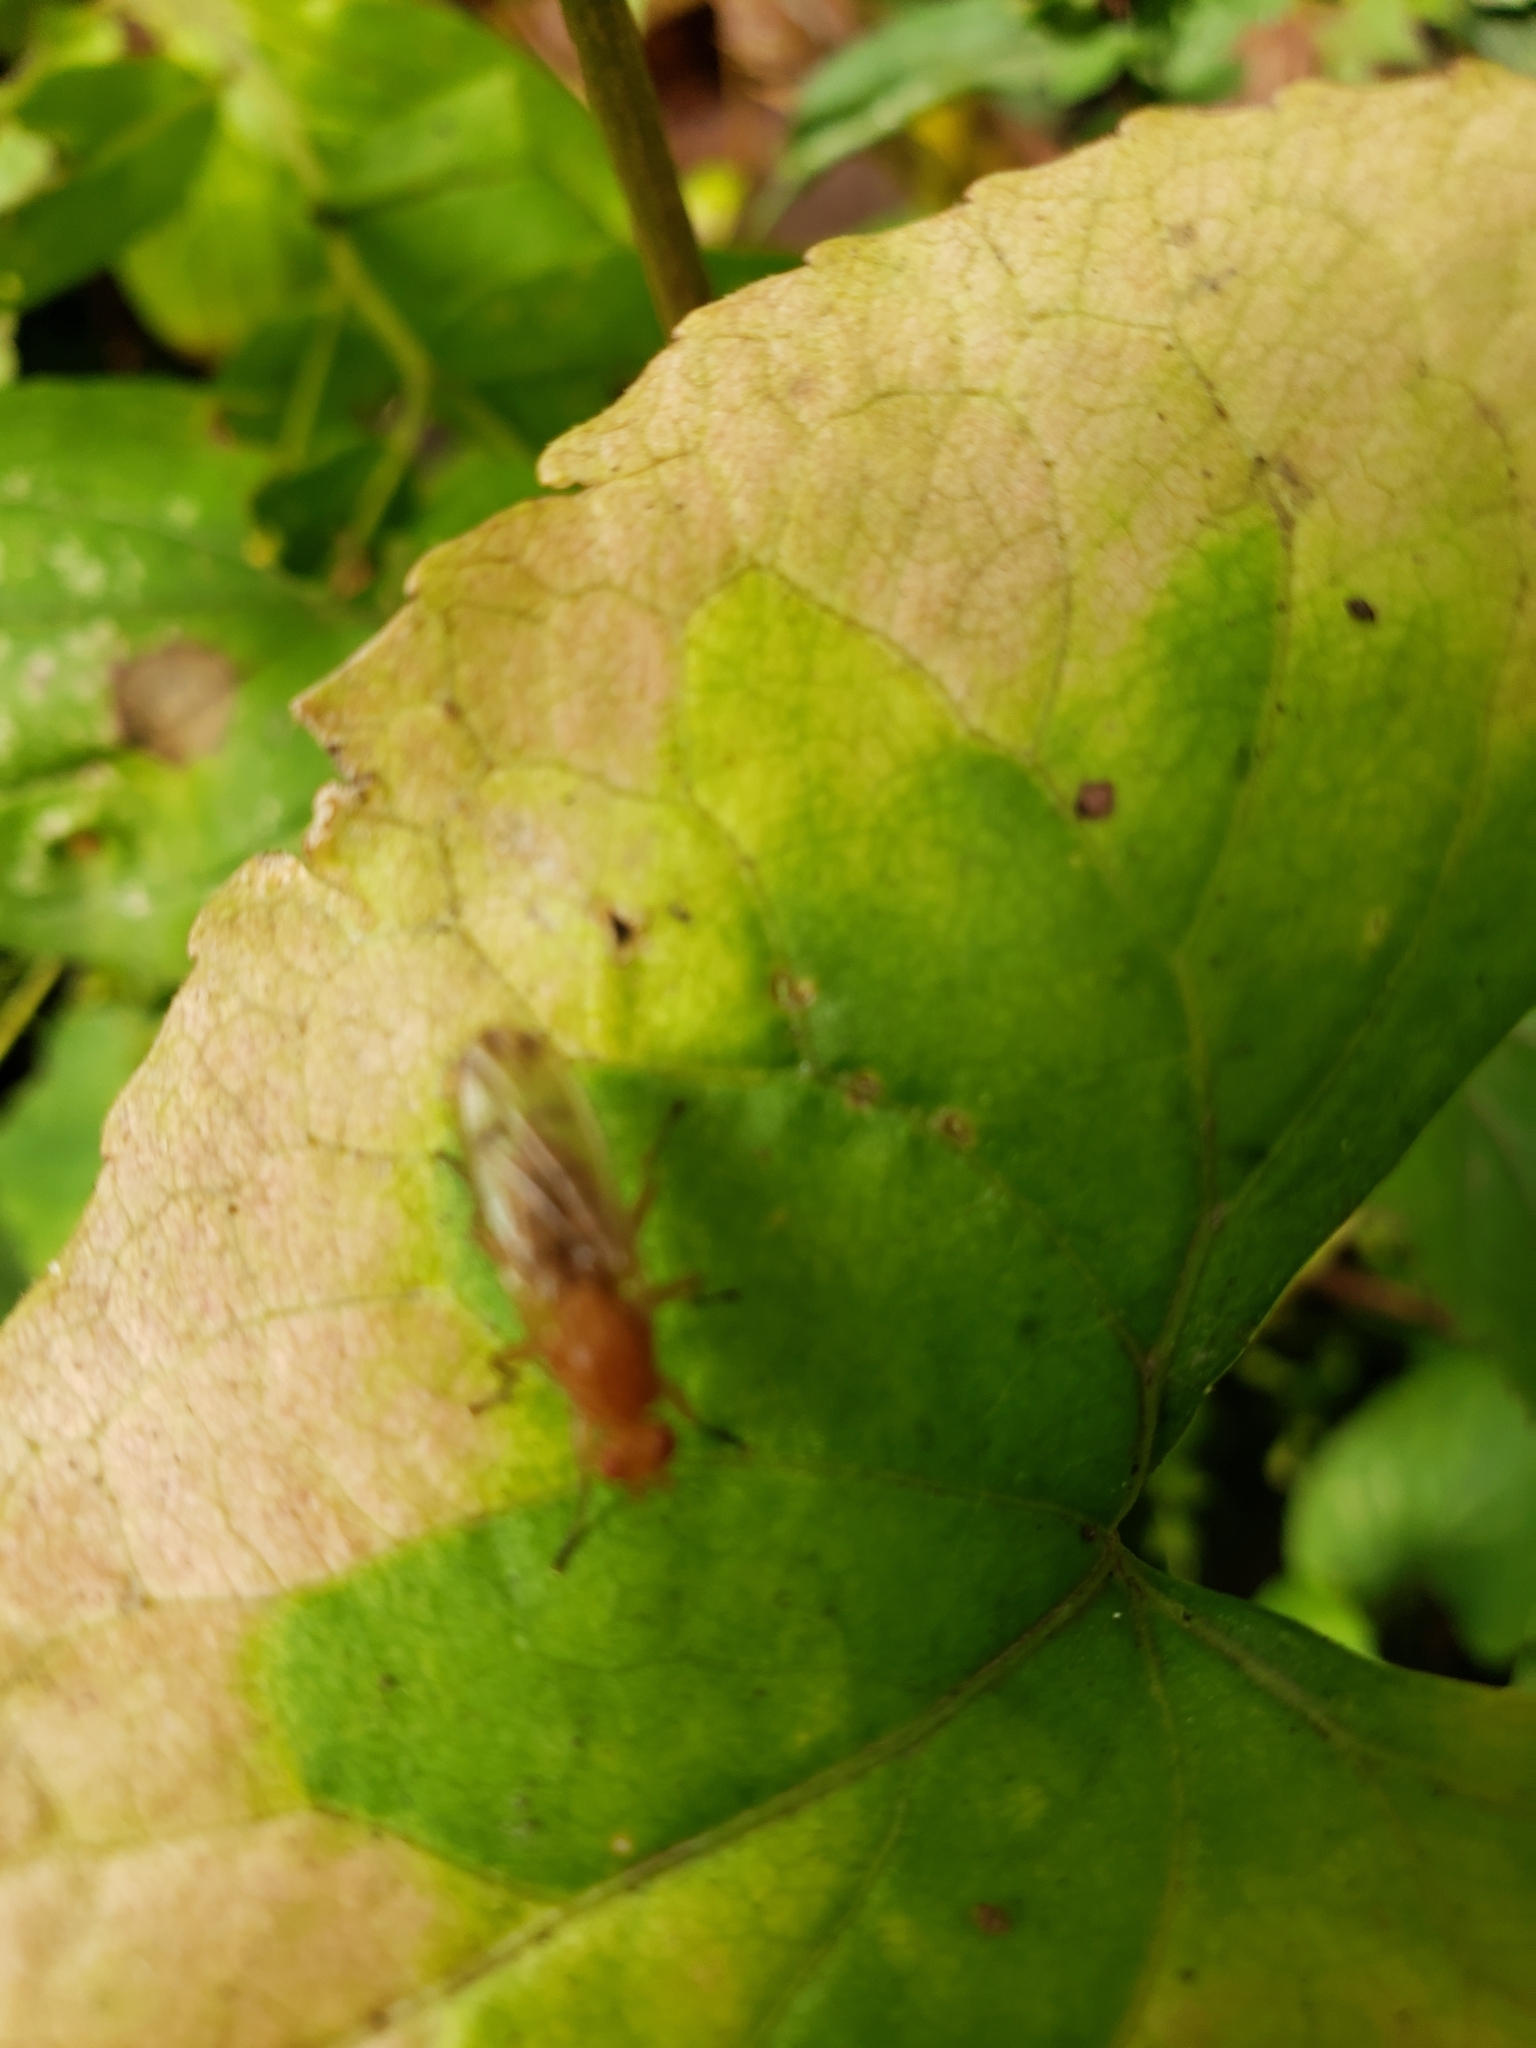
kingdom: Animalia
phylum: Arthropoda
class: Insecta
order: Diptera
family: Heleomyzidae
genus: Amoebaleria
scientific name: Amoebaleria helvola
